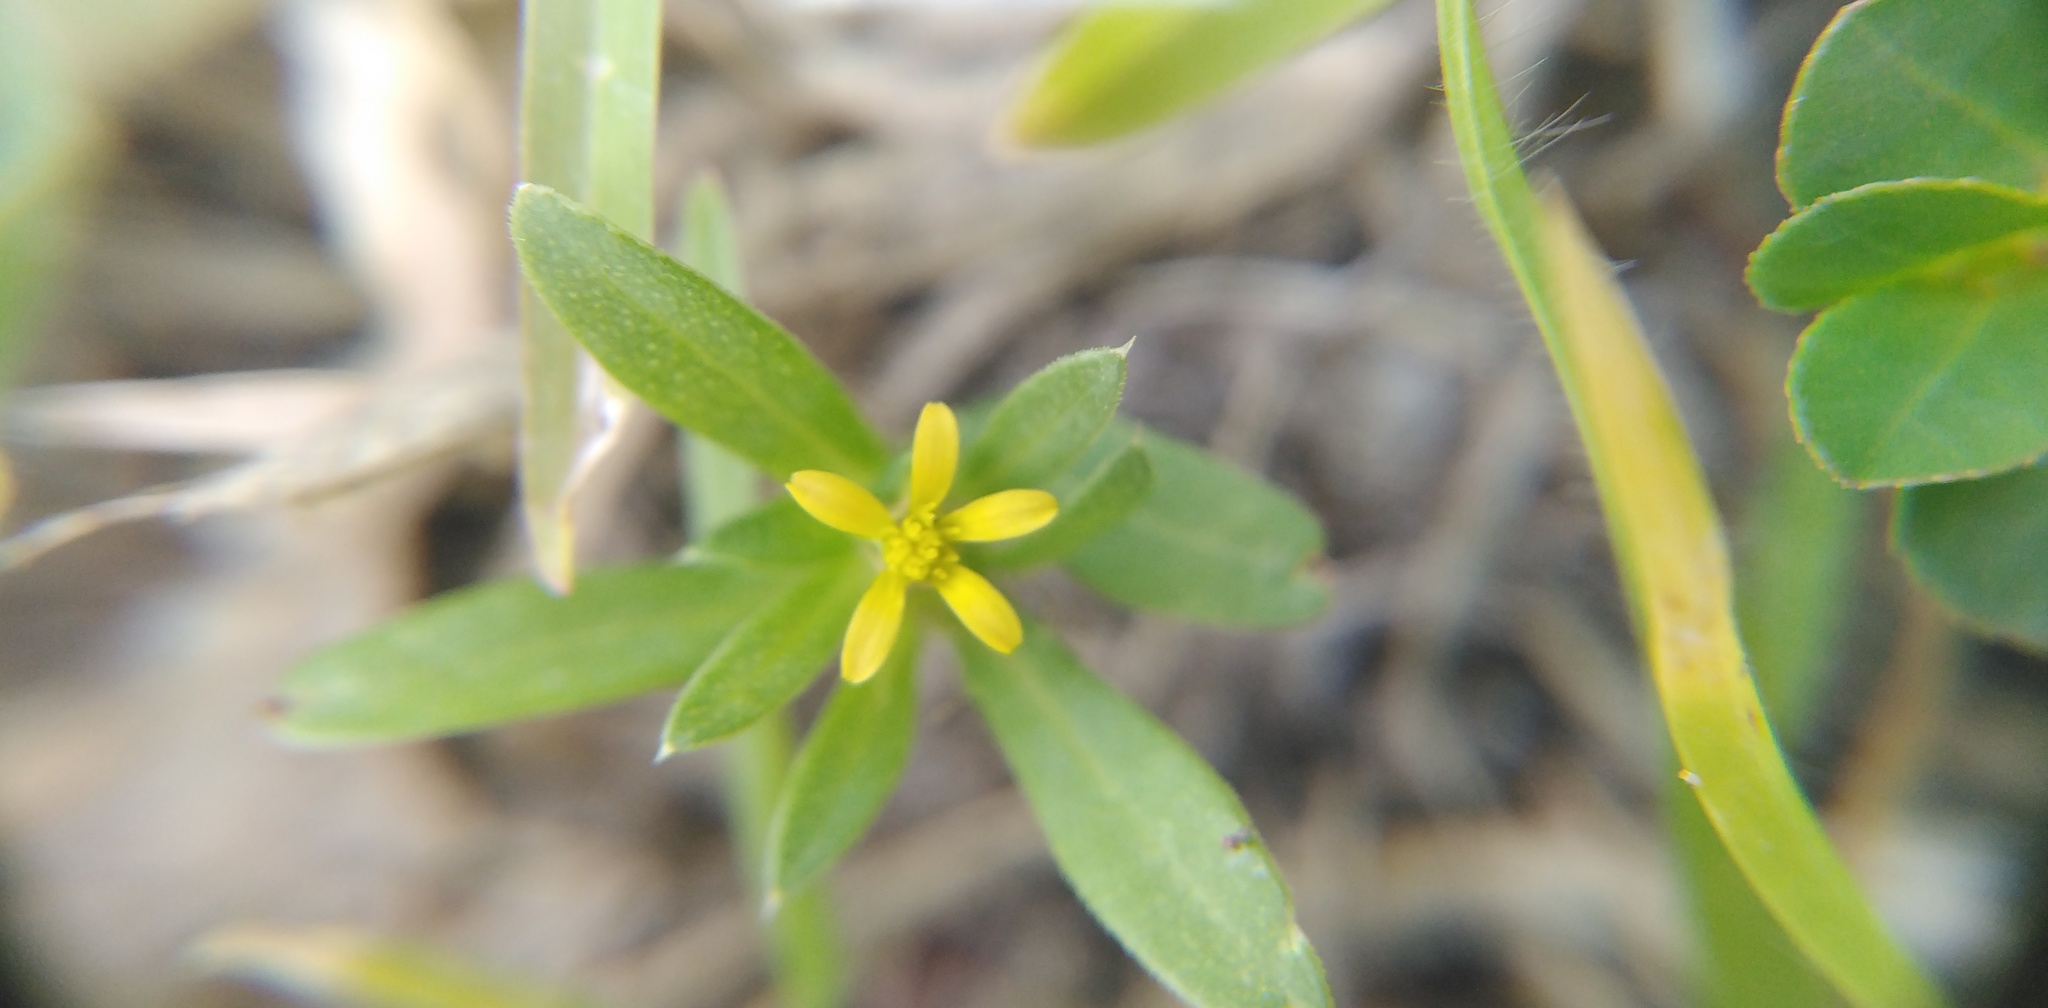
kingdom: Plantae
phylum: Tracheophyta
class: Magnoliopsida
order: Asterales
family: Asteraceae
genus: Pectis
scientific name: Pectis prostrata
